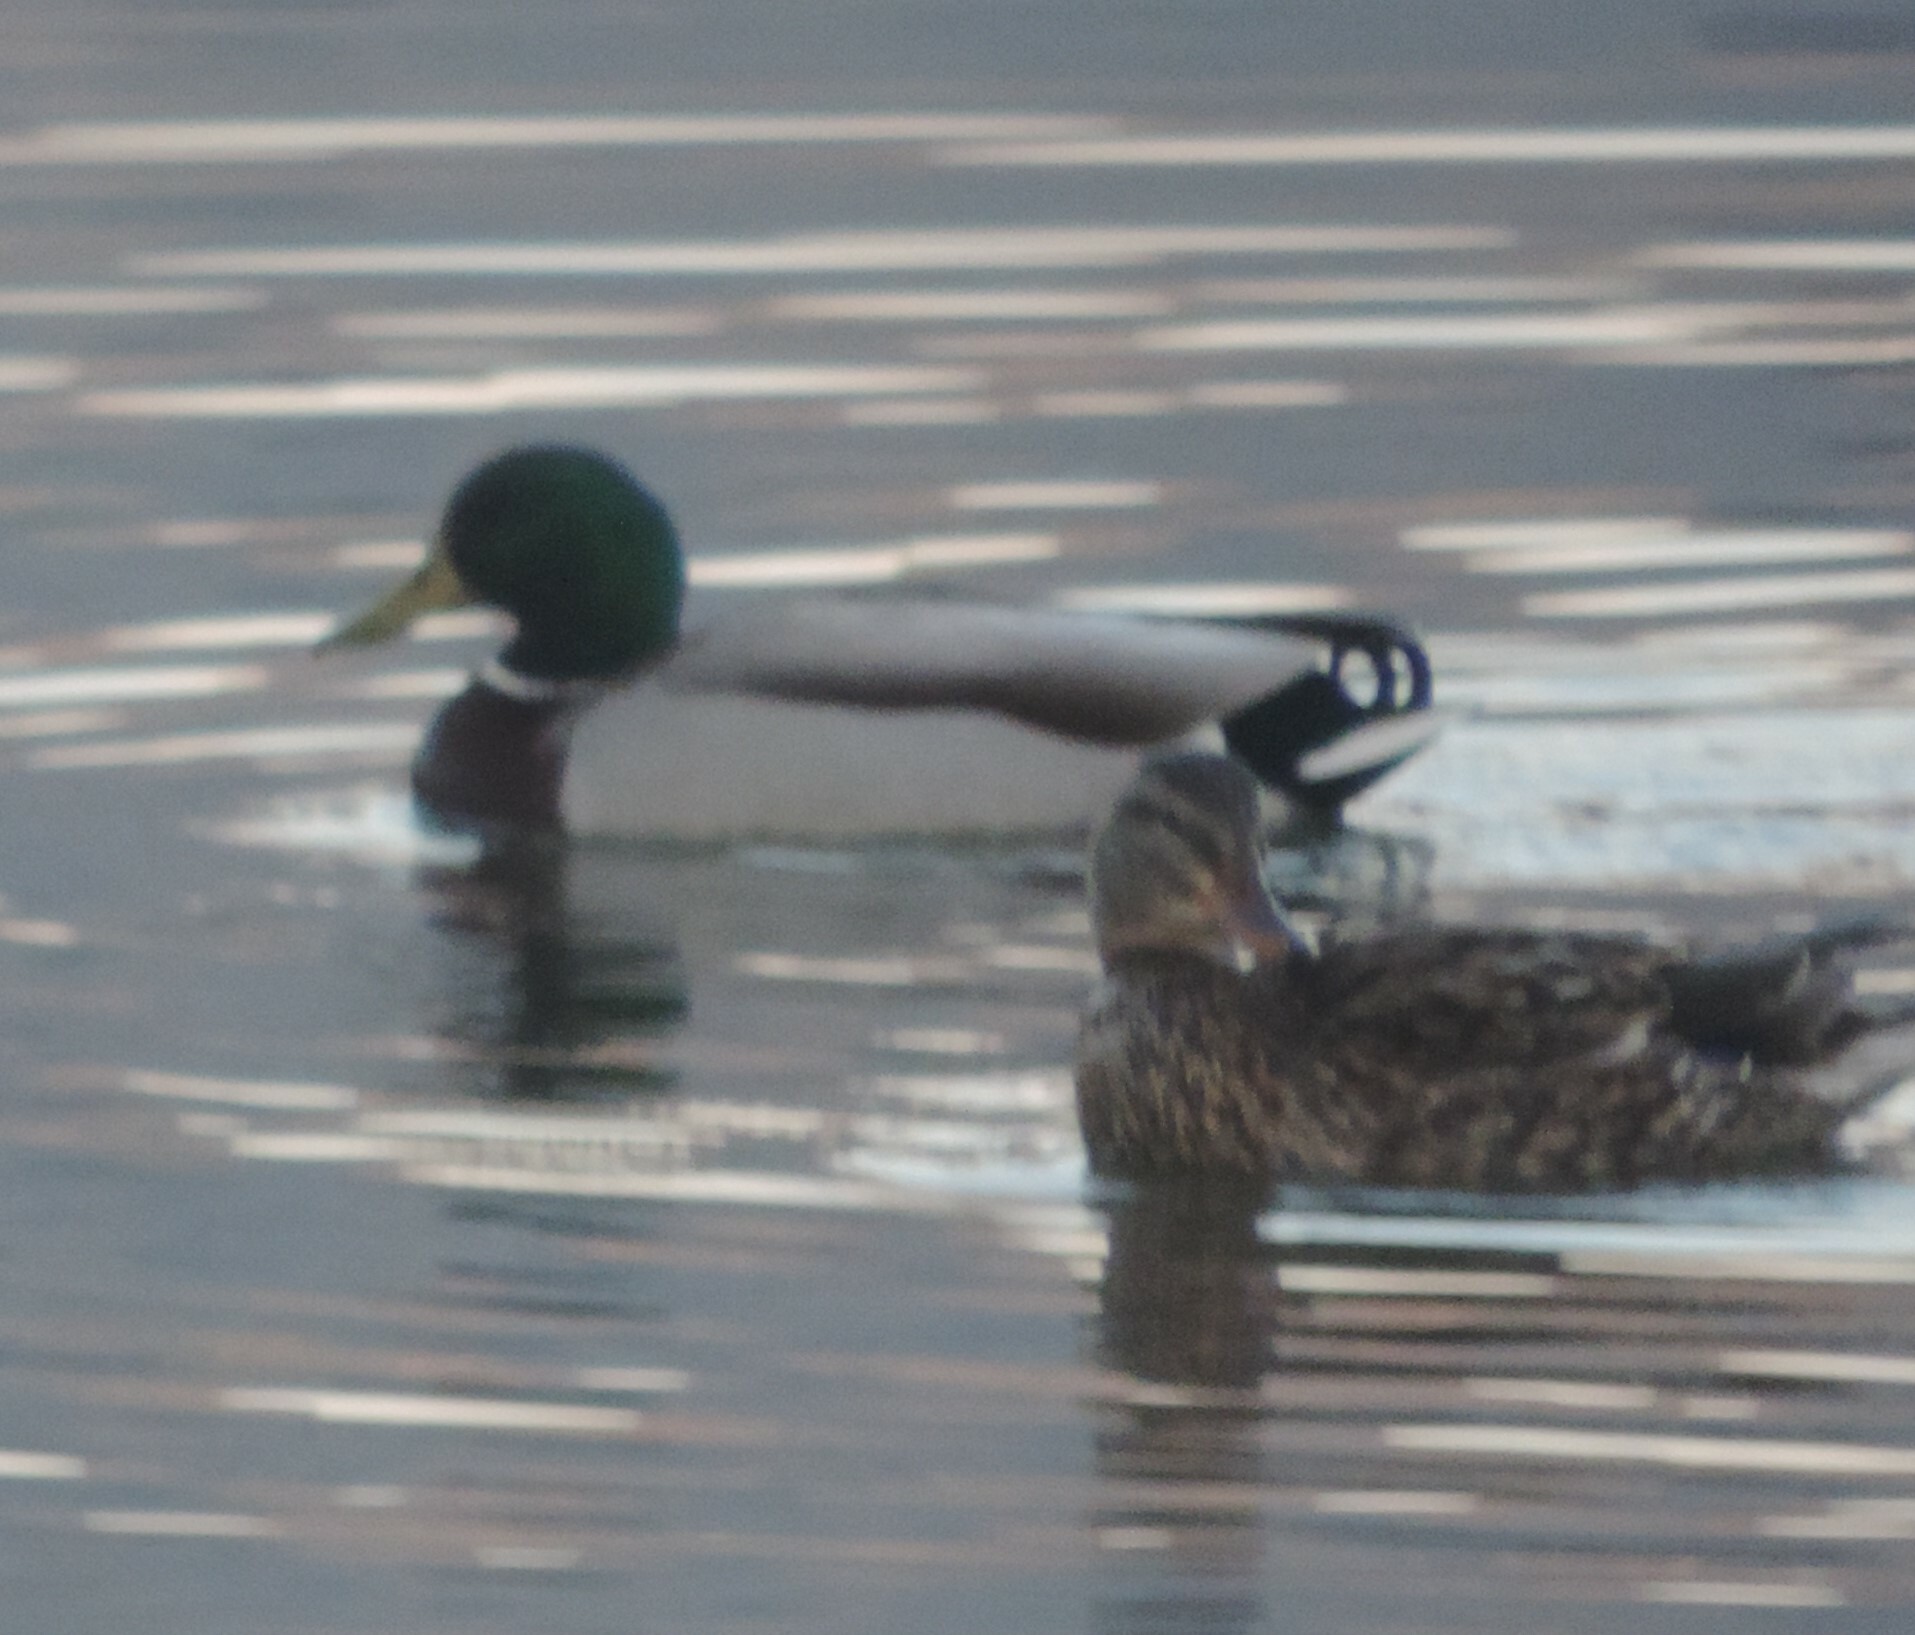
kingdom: Animalia
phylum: Chordata
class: Aves
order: Anseriformes
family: Anatidae
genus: Anas
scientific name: Anas platyrhynchos
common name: Mallard
